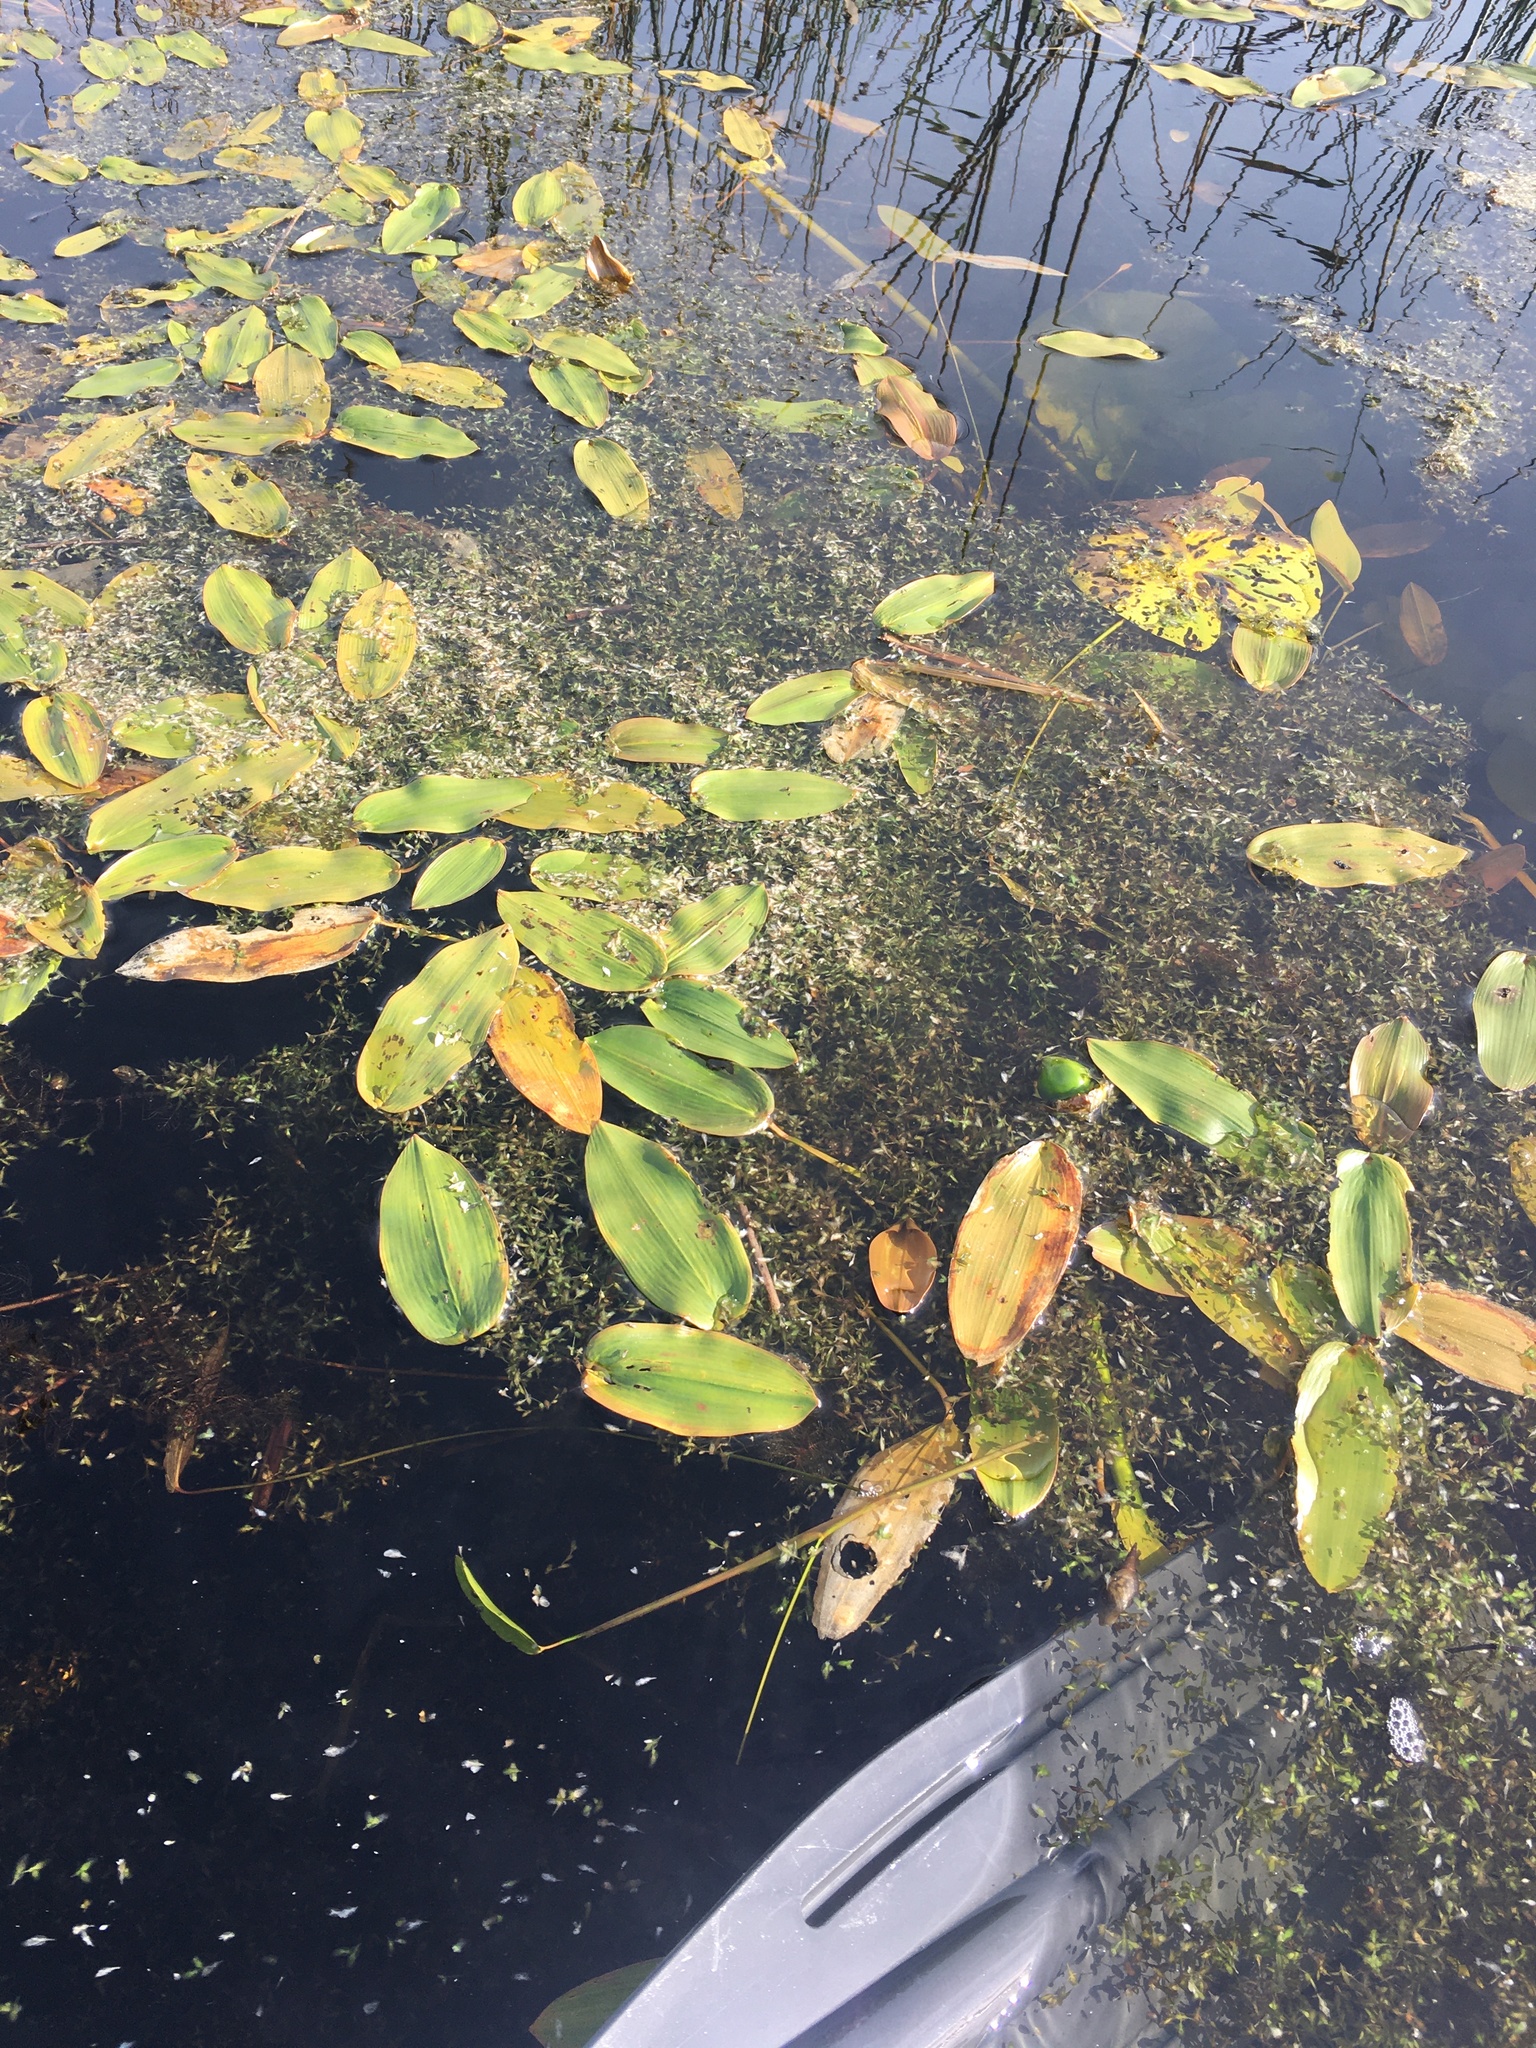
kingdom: Plantae
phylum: Tracheophyta
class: Liliopsida
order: Alismatales
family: Potamogetonaceae
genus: Potamogeton
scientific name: Potamogeton natans
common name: Broad-leaved pondweed
